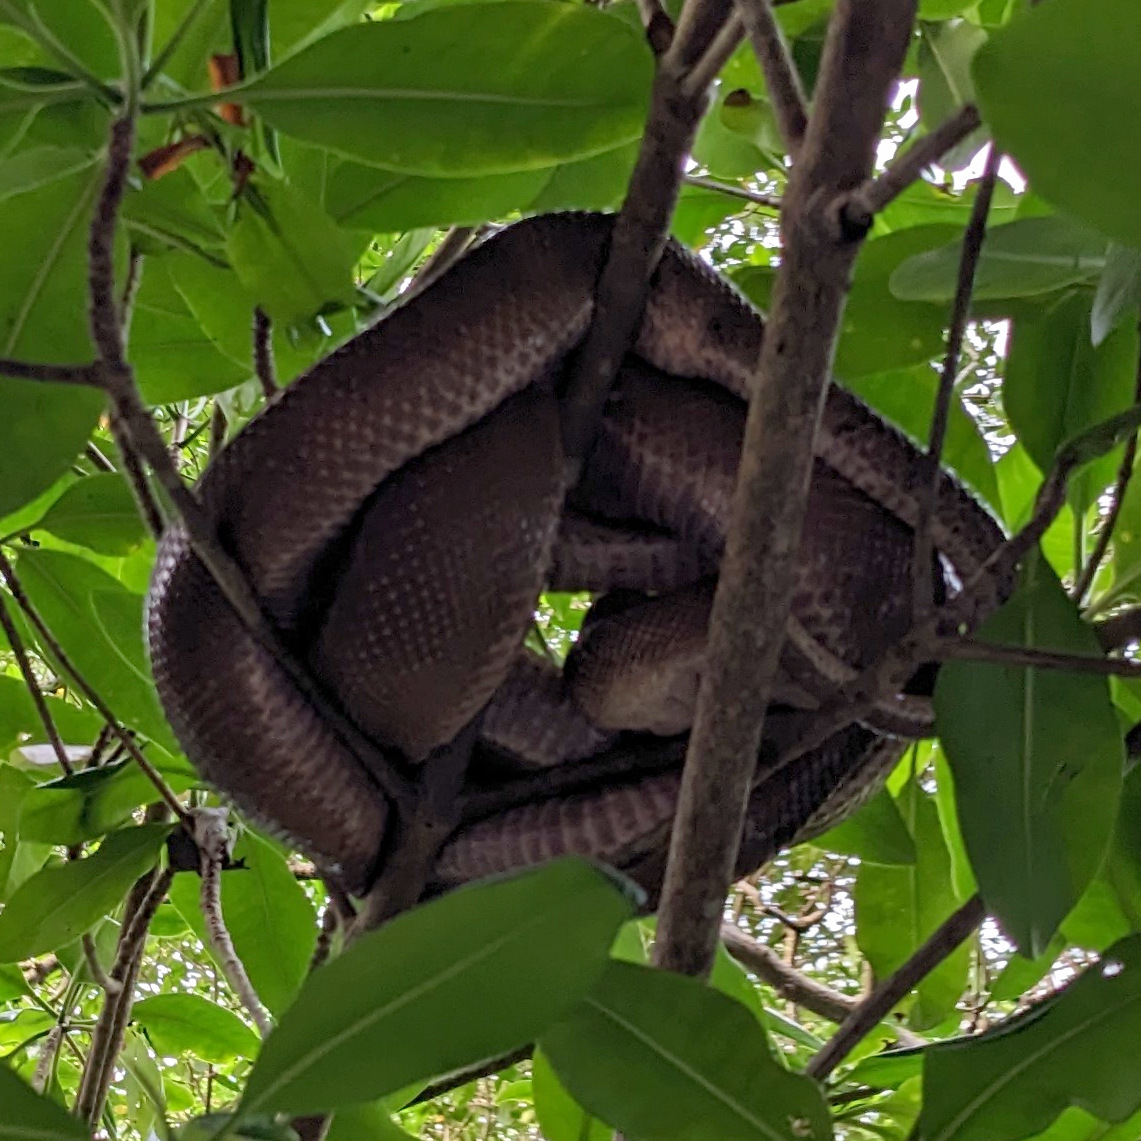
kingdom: Animalia
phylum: Chordata
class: Squamata
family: Boidae
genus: Corallus
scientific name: Corallus ruschenbergerii
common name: Dormilona
